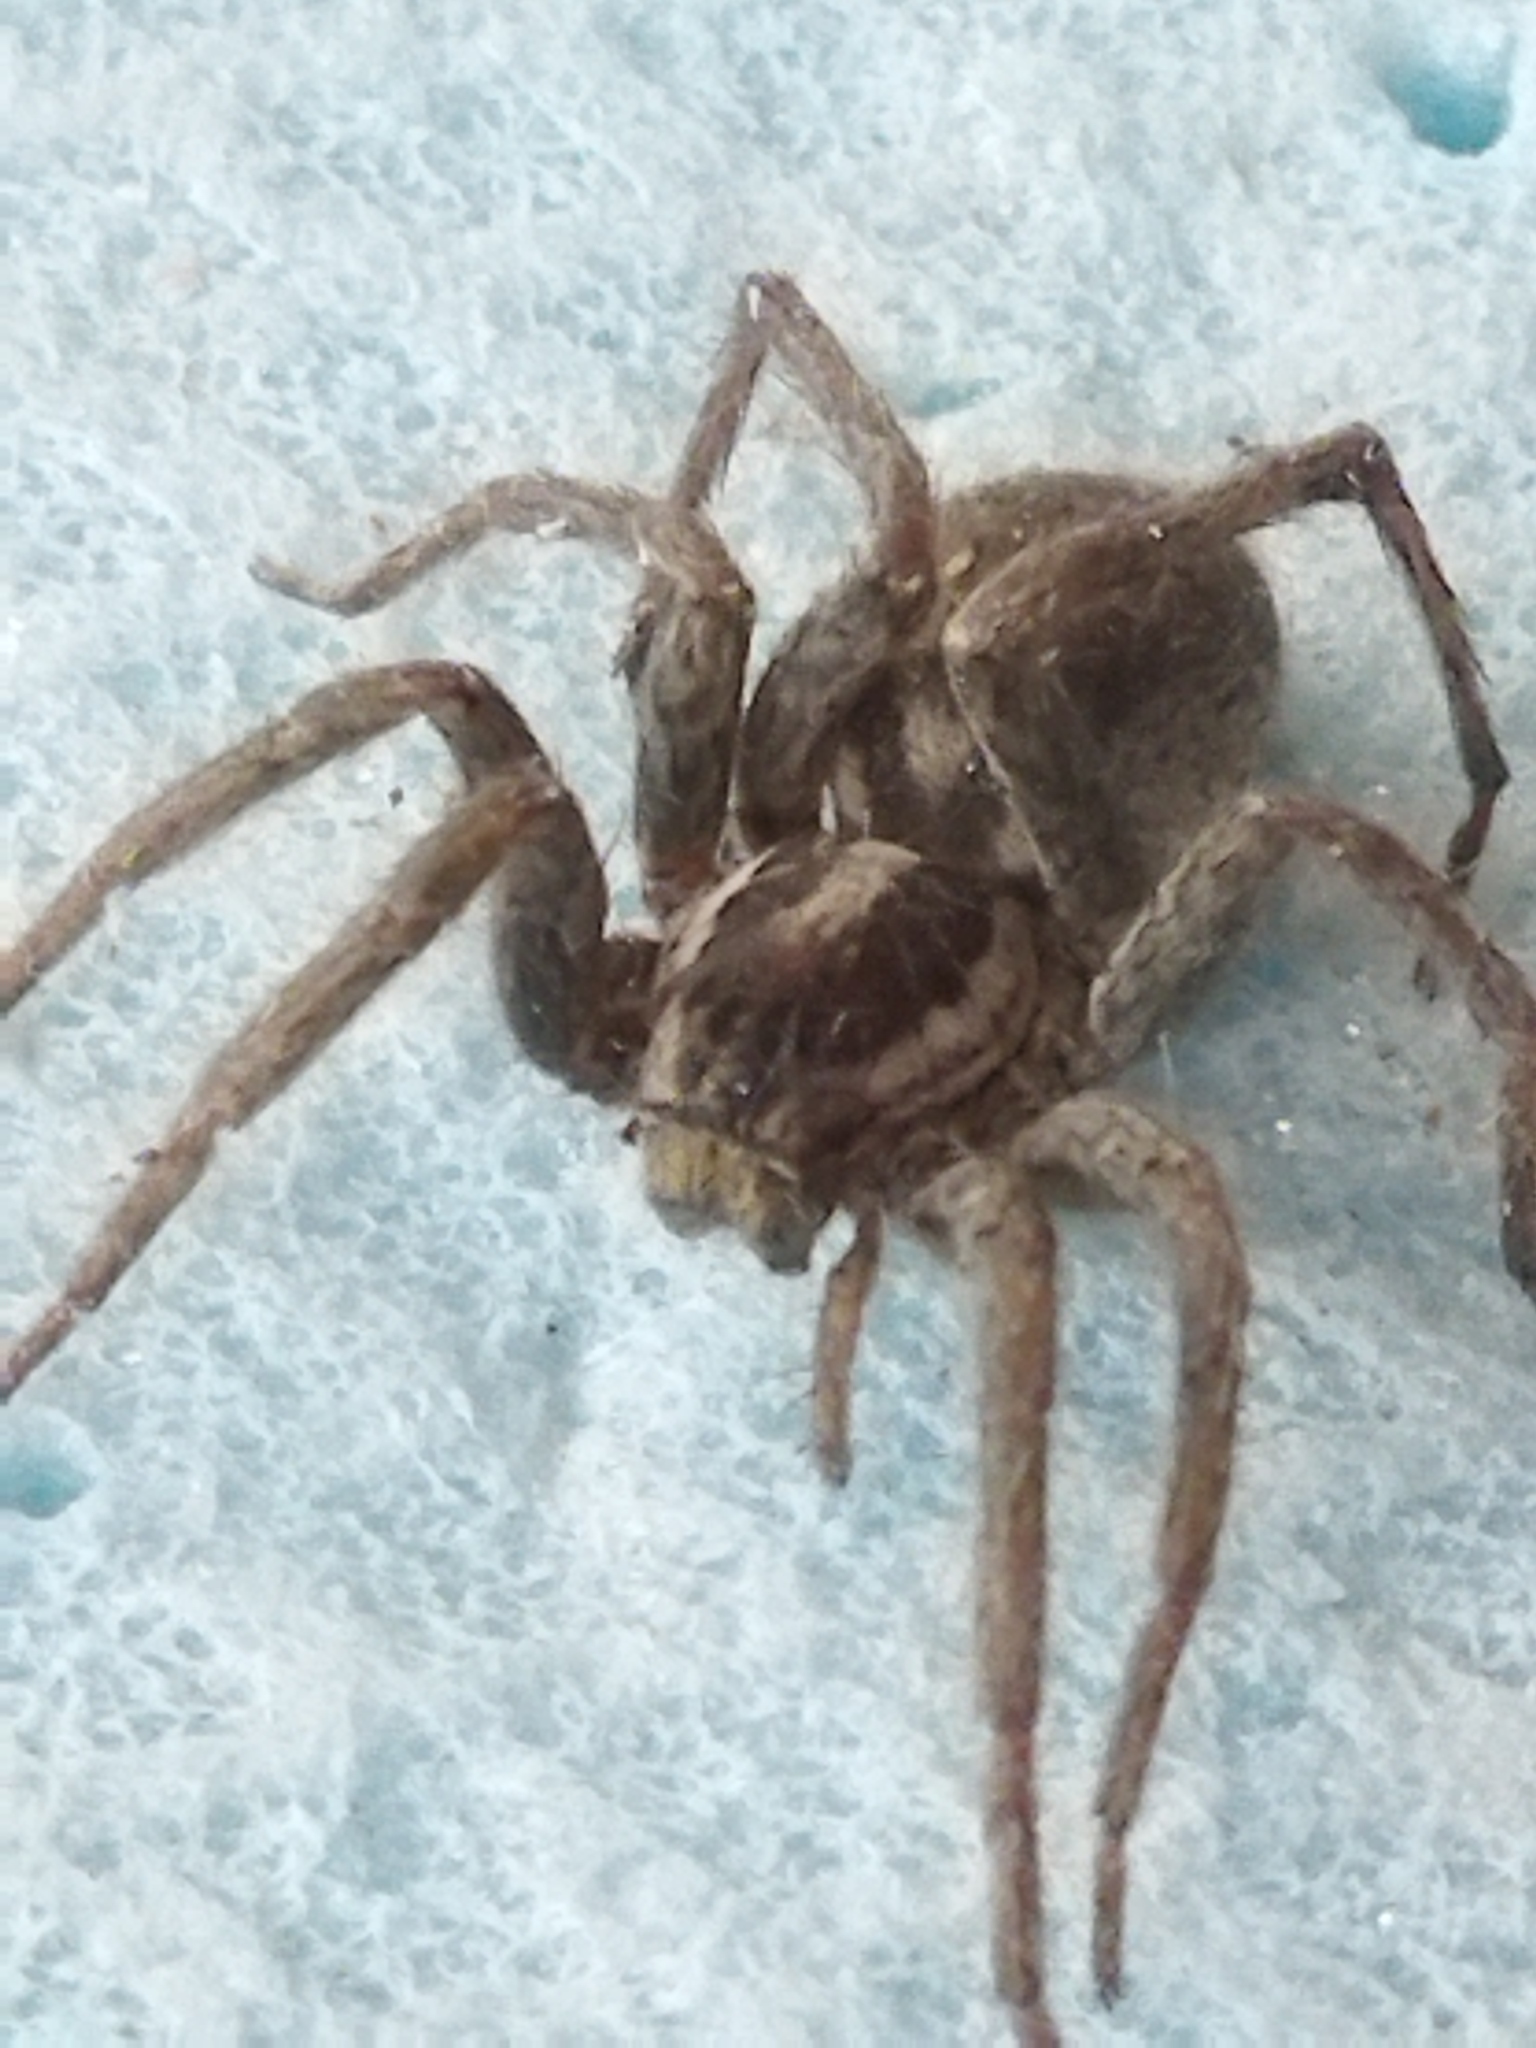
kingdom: Animalia
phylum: Arthropoda
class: Arachnida
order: Araneae
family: Lycosidae
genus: Hogna
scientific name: Hogna radiata
